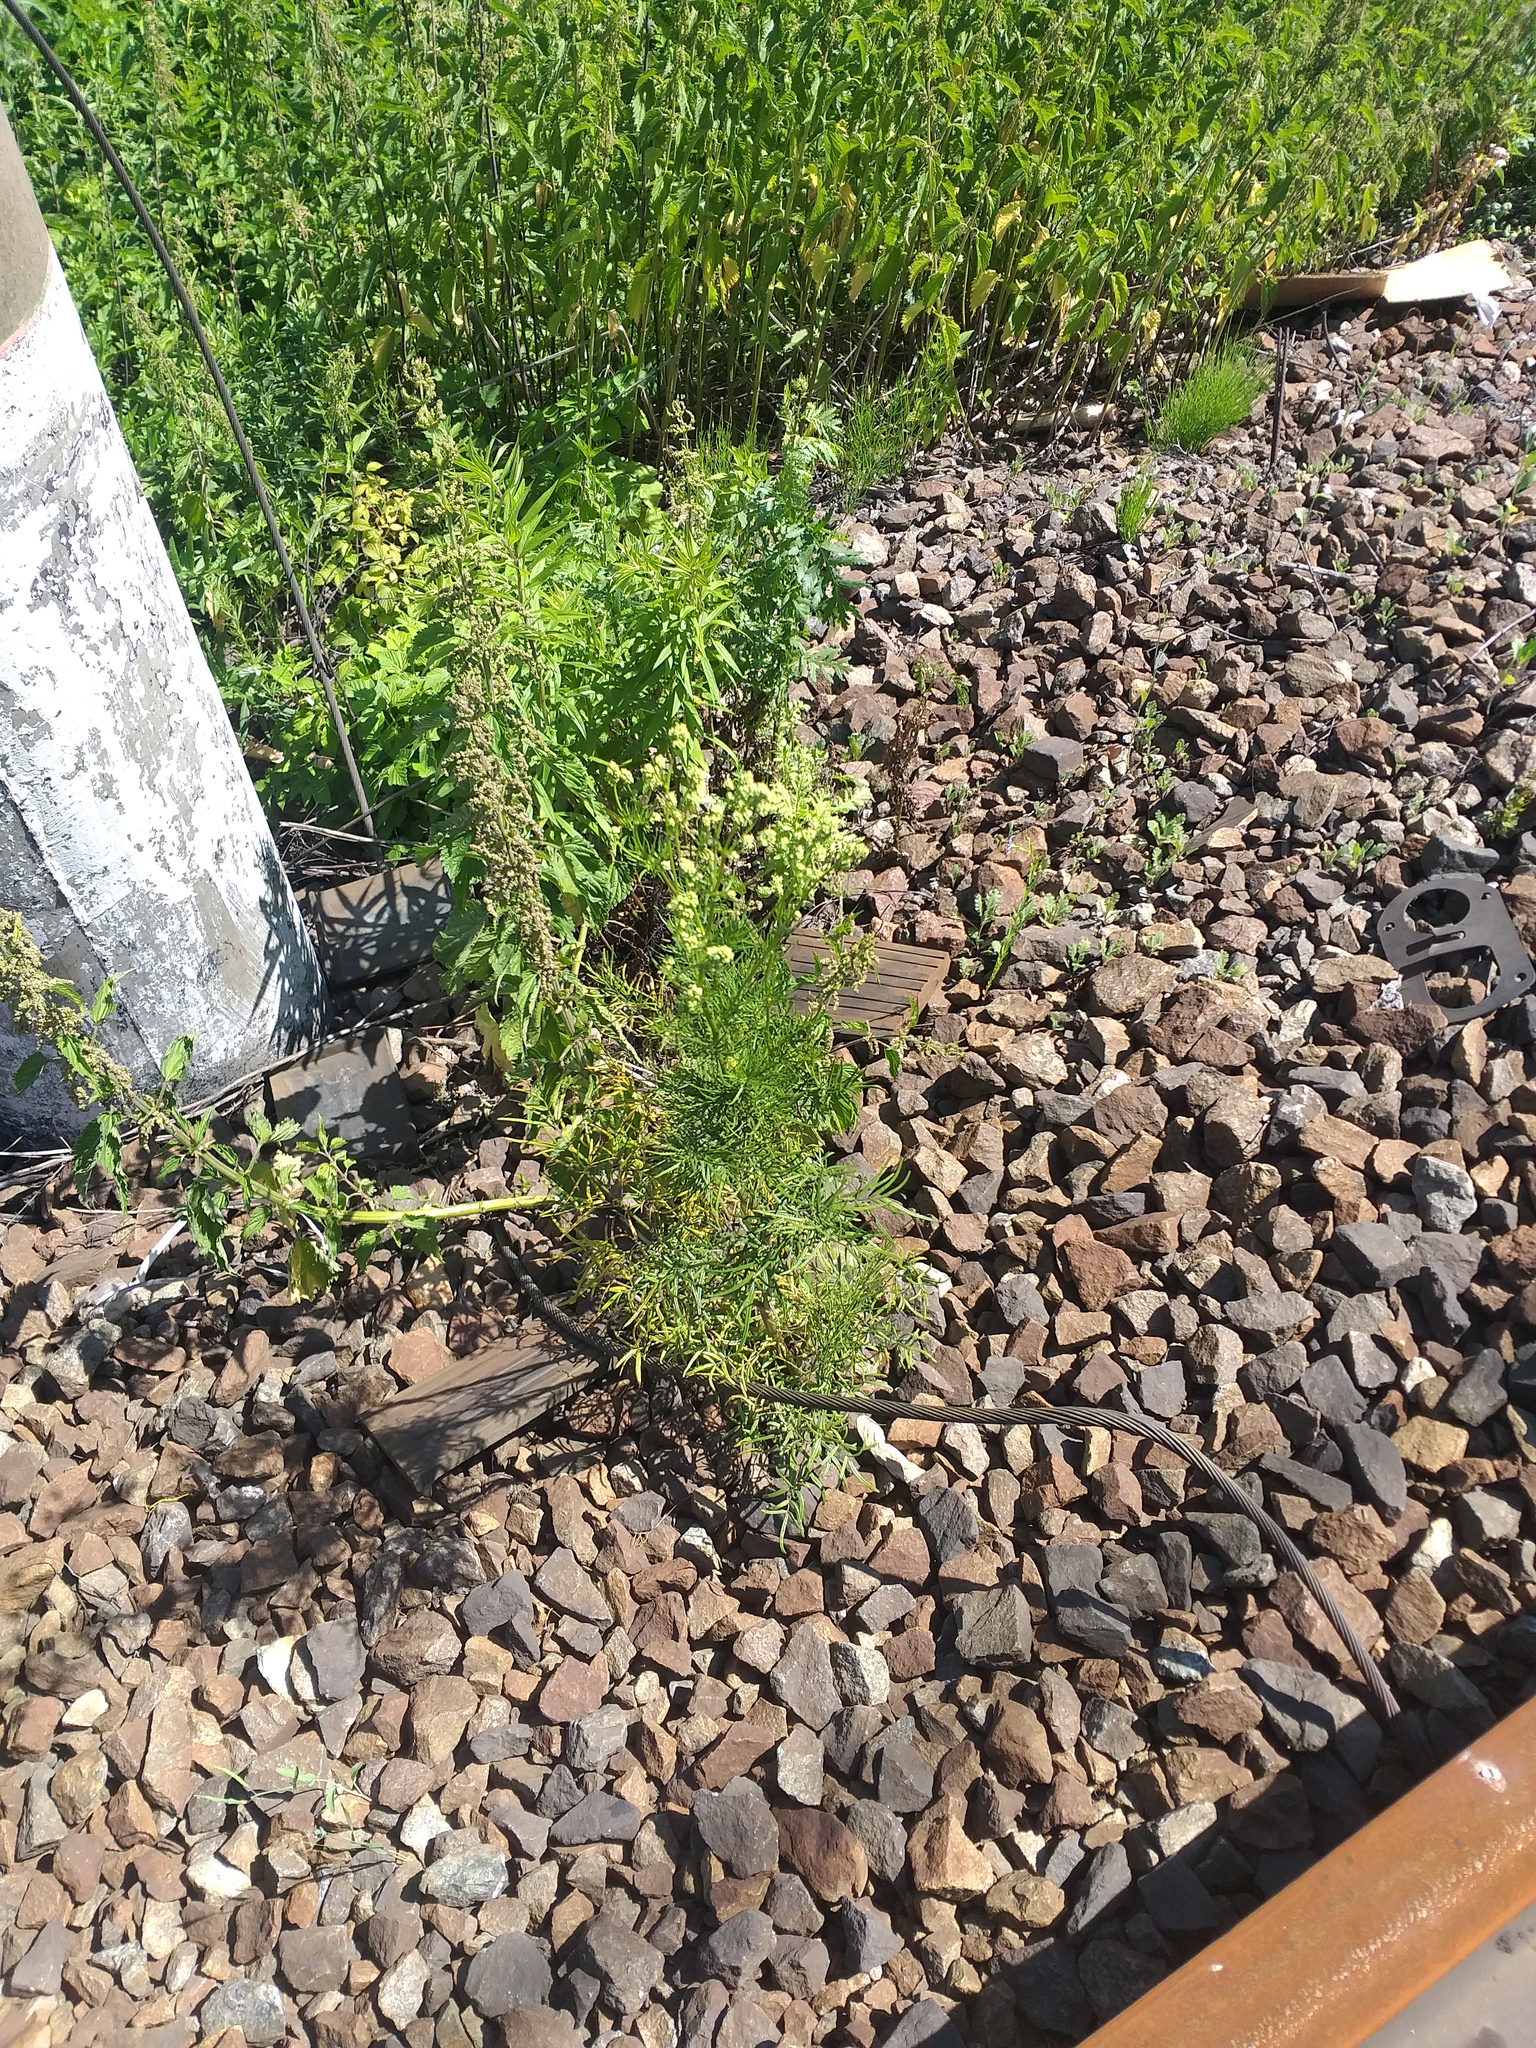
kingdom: Plantae
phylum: Tracheophyta
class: Magnoliopsida
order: Ranunculales
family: Ranunculaceae
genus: Thalictrum
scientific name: Thalictrum lucidum
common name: Shining meadow-rue
